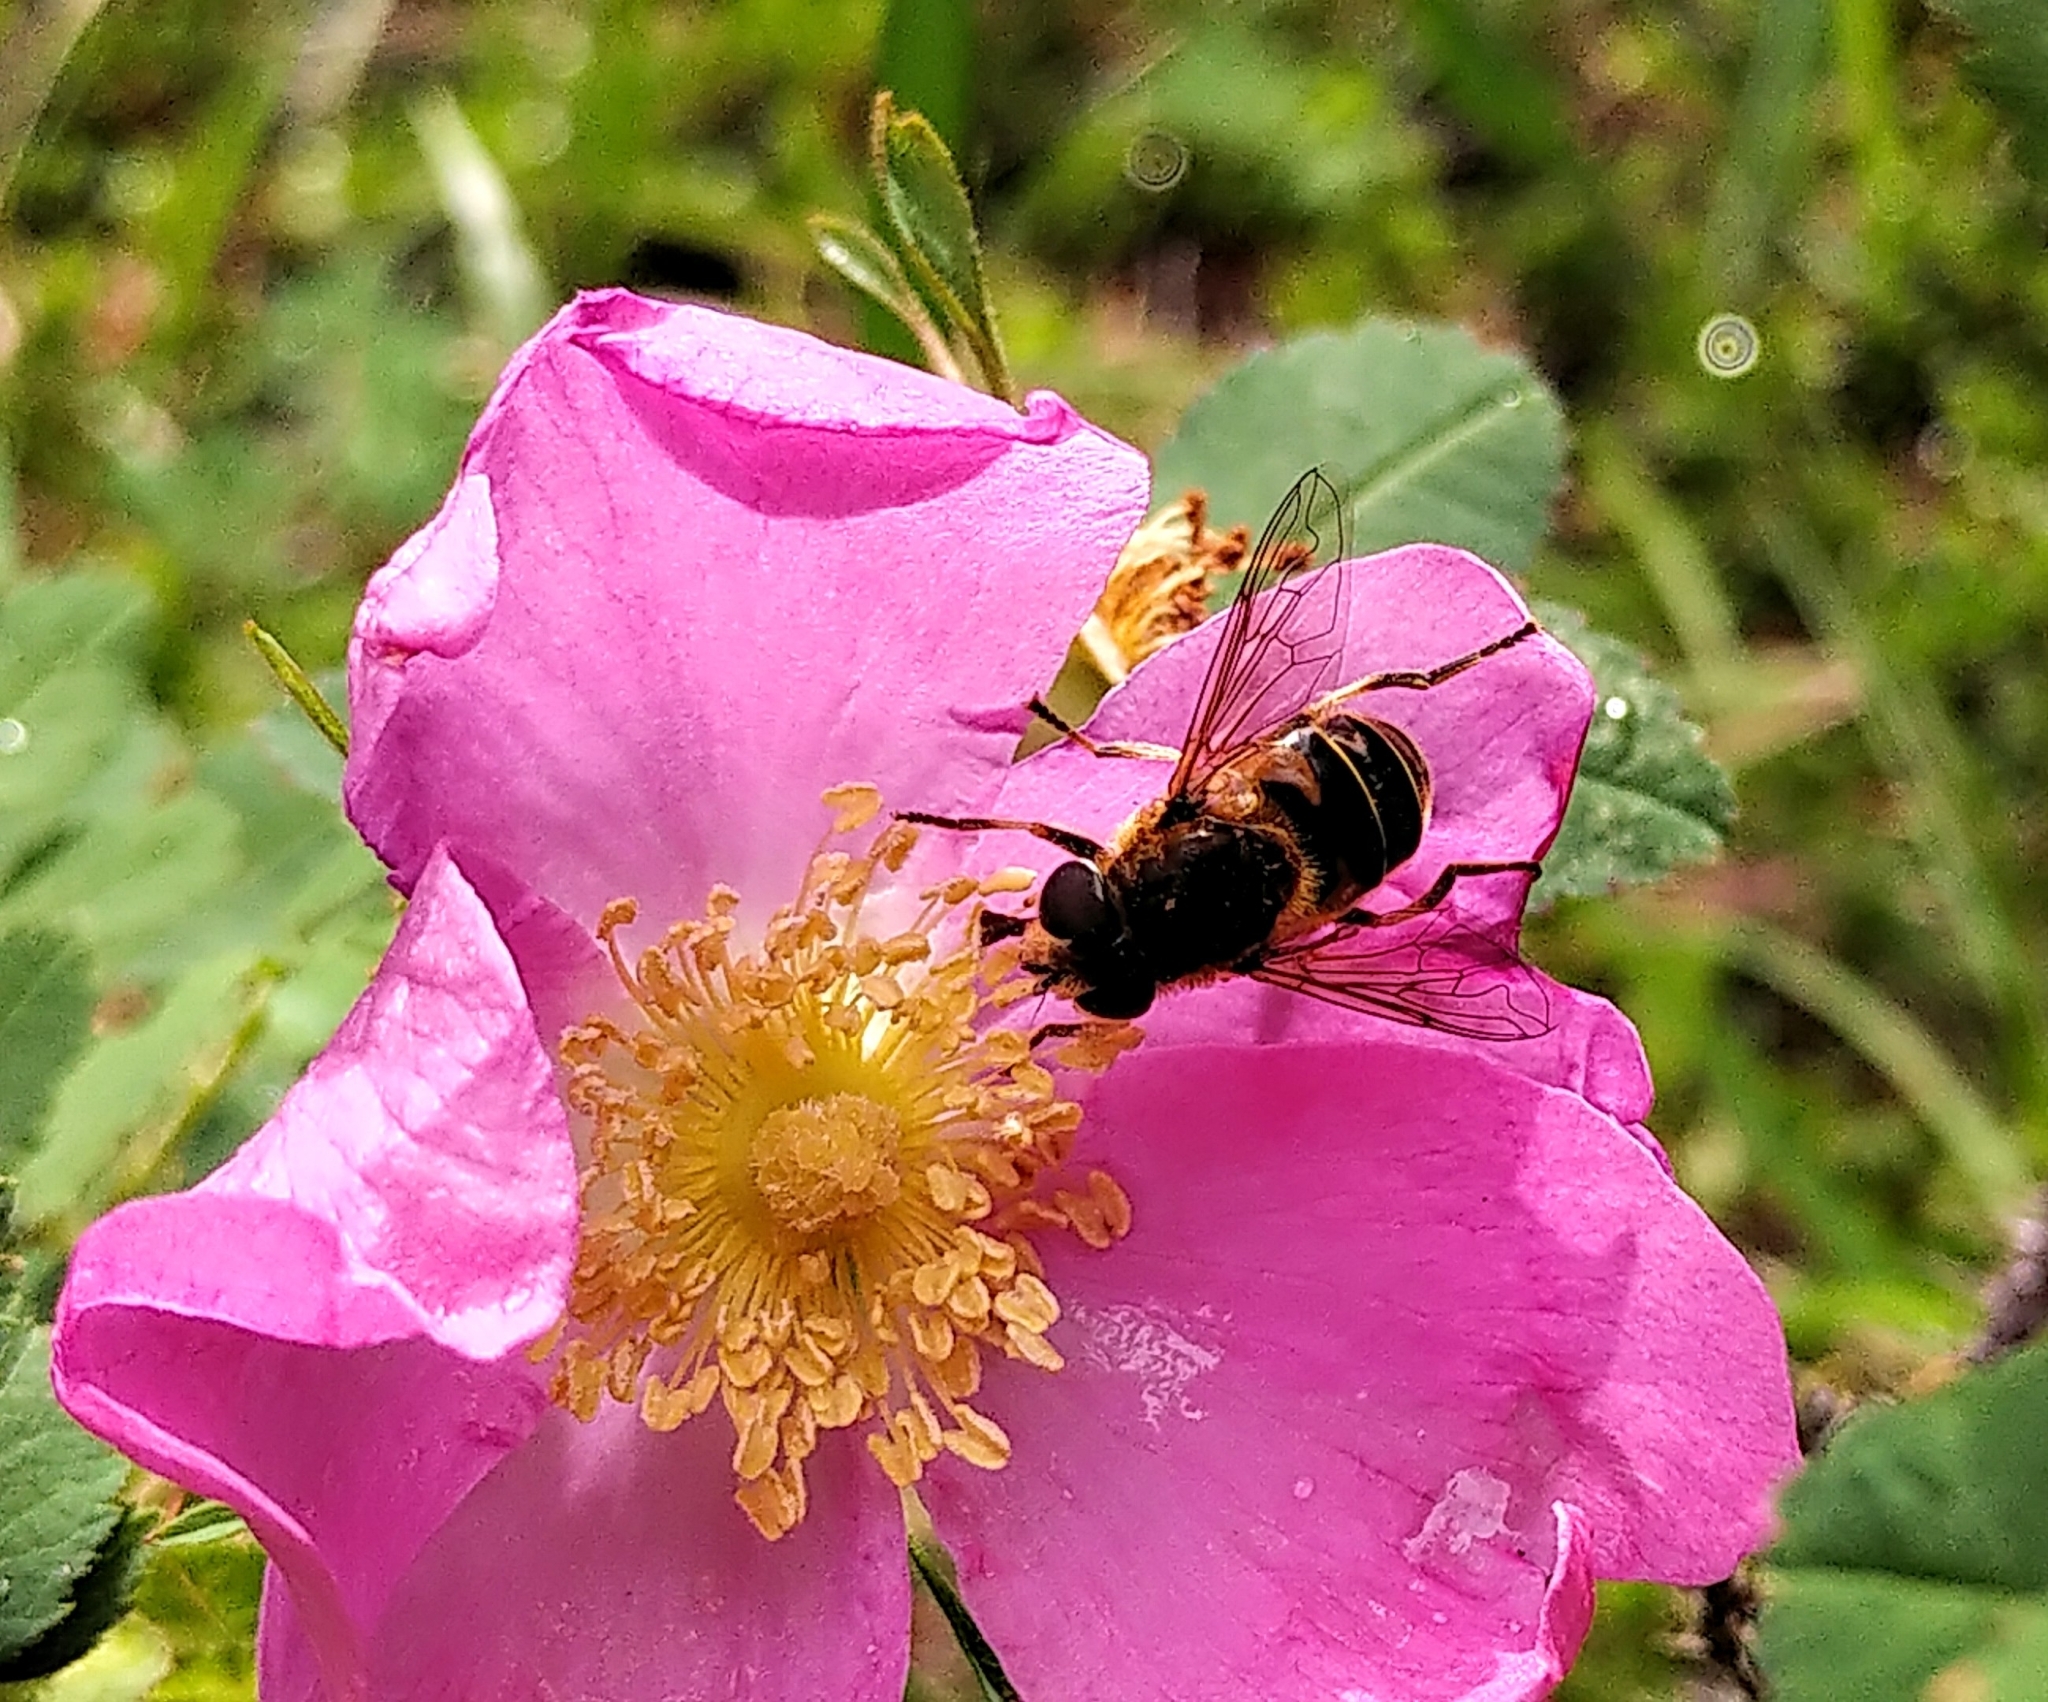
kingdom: Animalia
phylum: Arthropoda
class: Insecta
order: Diptera
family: Syrphidae
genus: Eristalis
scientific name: Eristalis hirta
